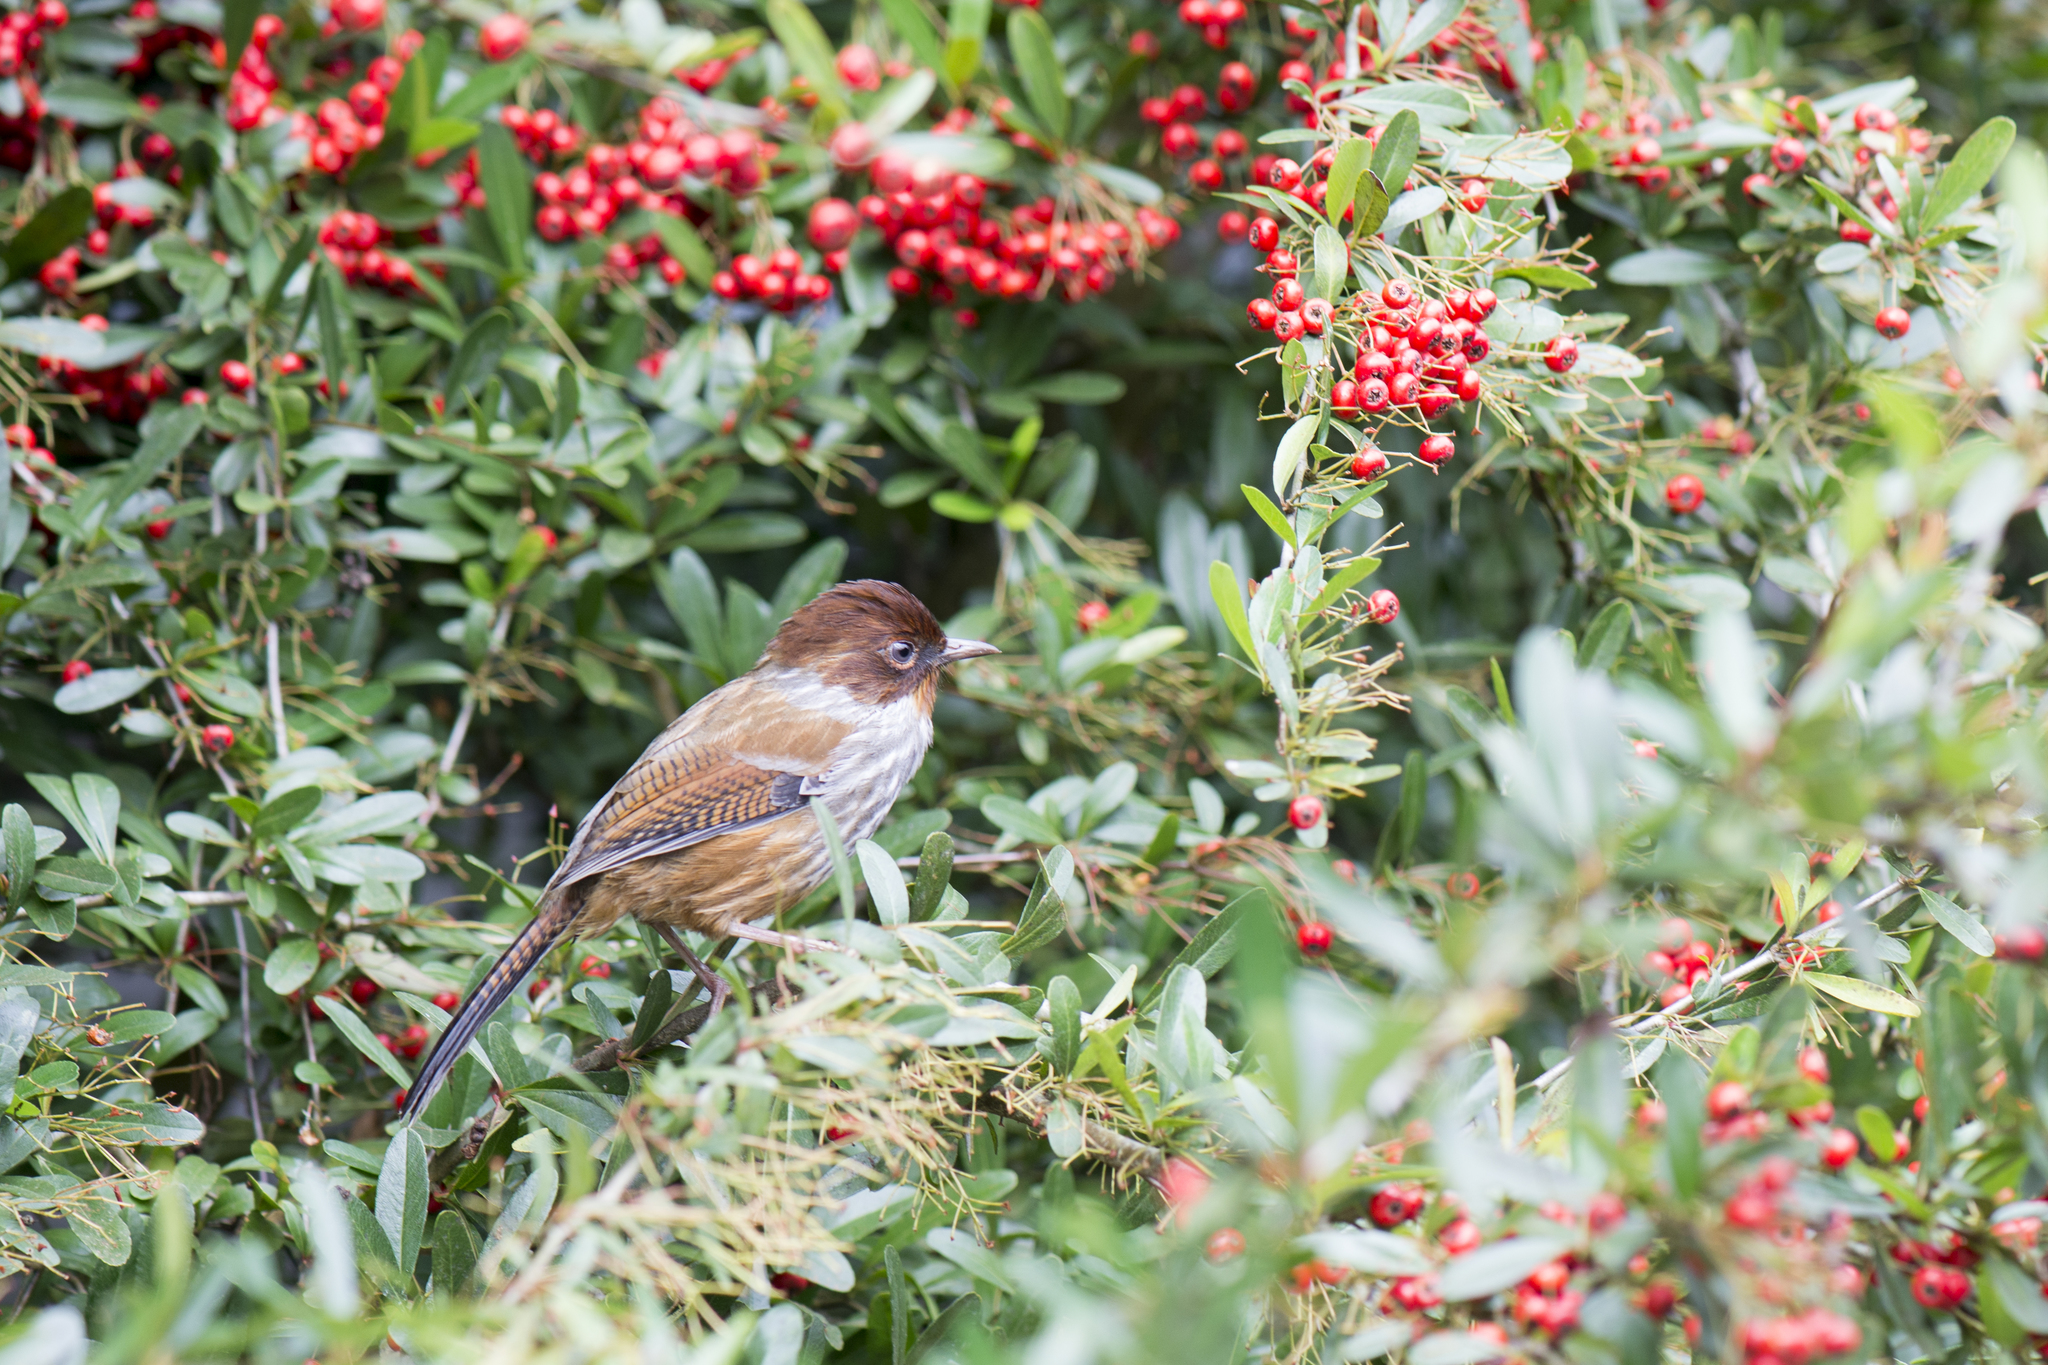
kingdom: Animalia
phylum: Chordata
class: Aves
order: Passeriformes
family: Leiothrichidae
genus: Actinodura
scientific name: Actinodura morrisoniana
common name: Taiwan barwing
